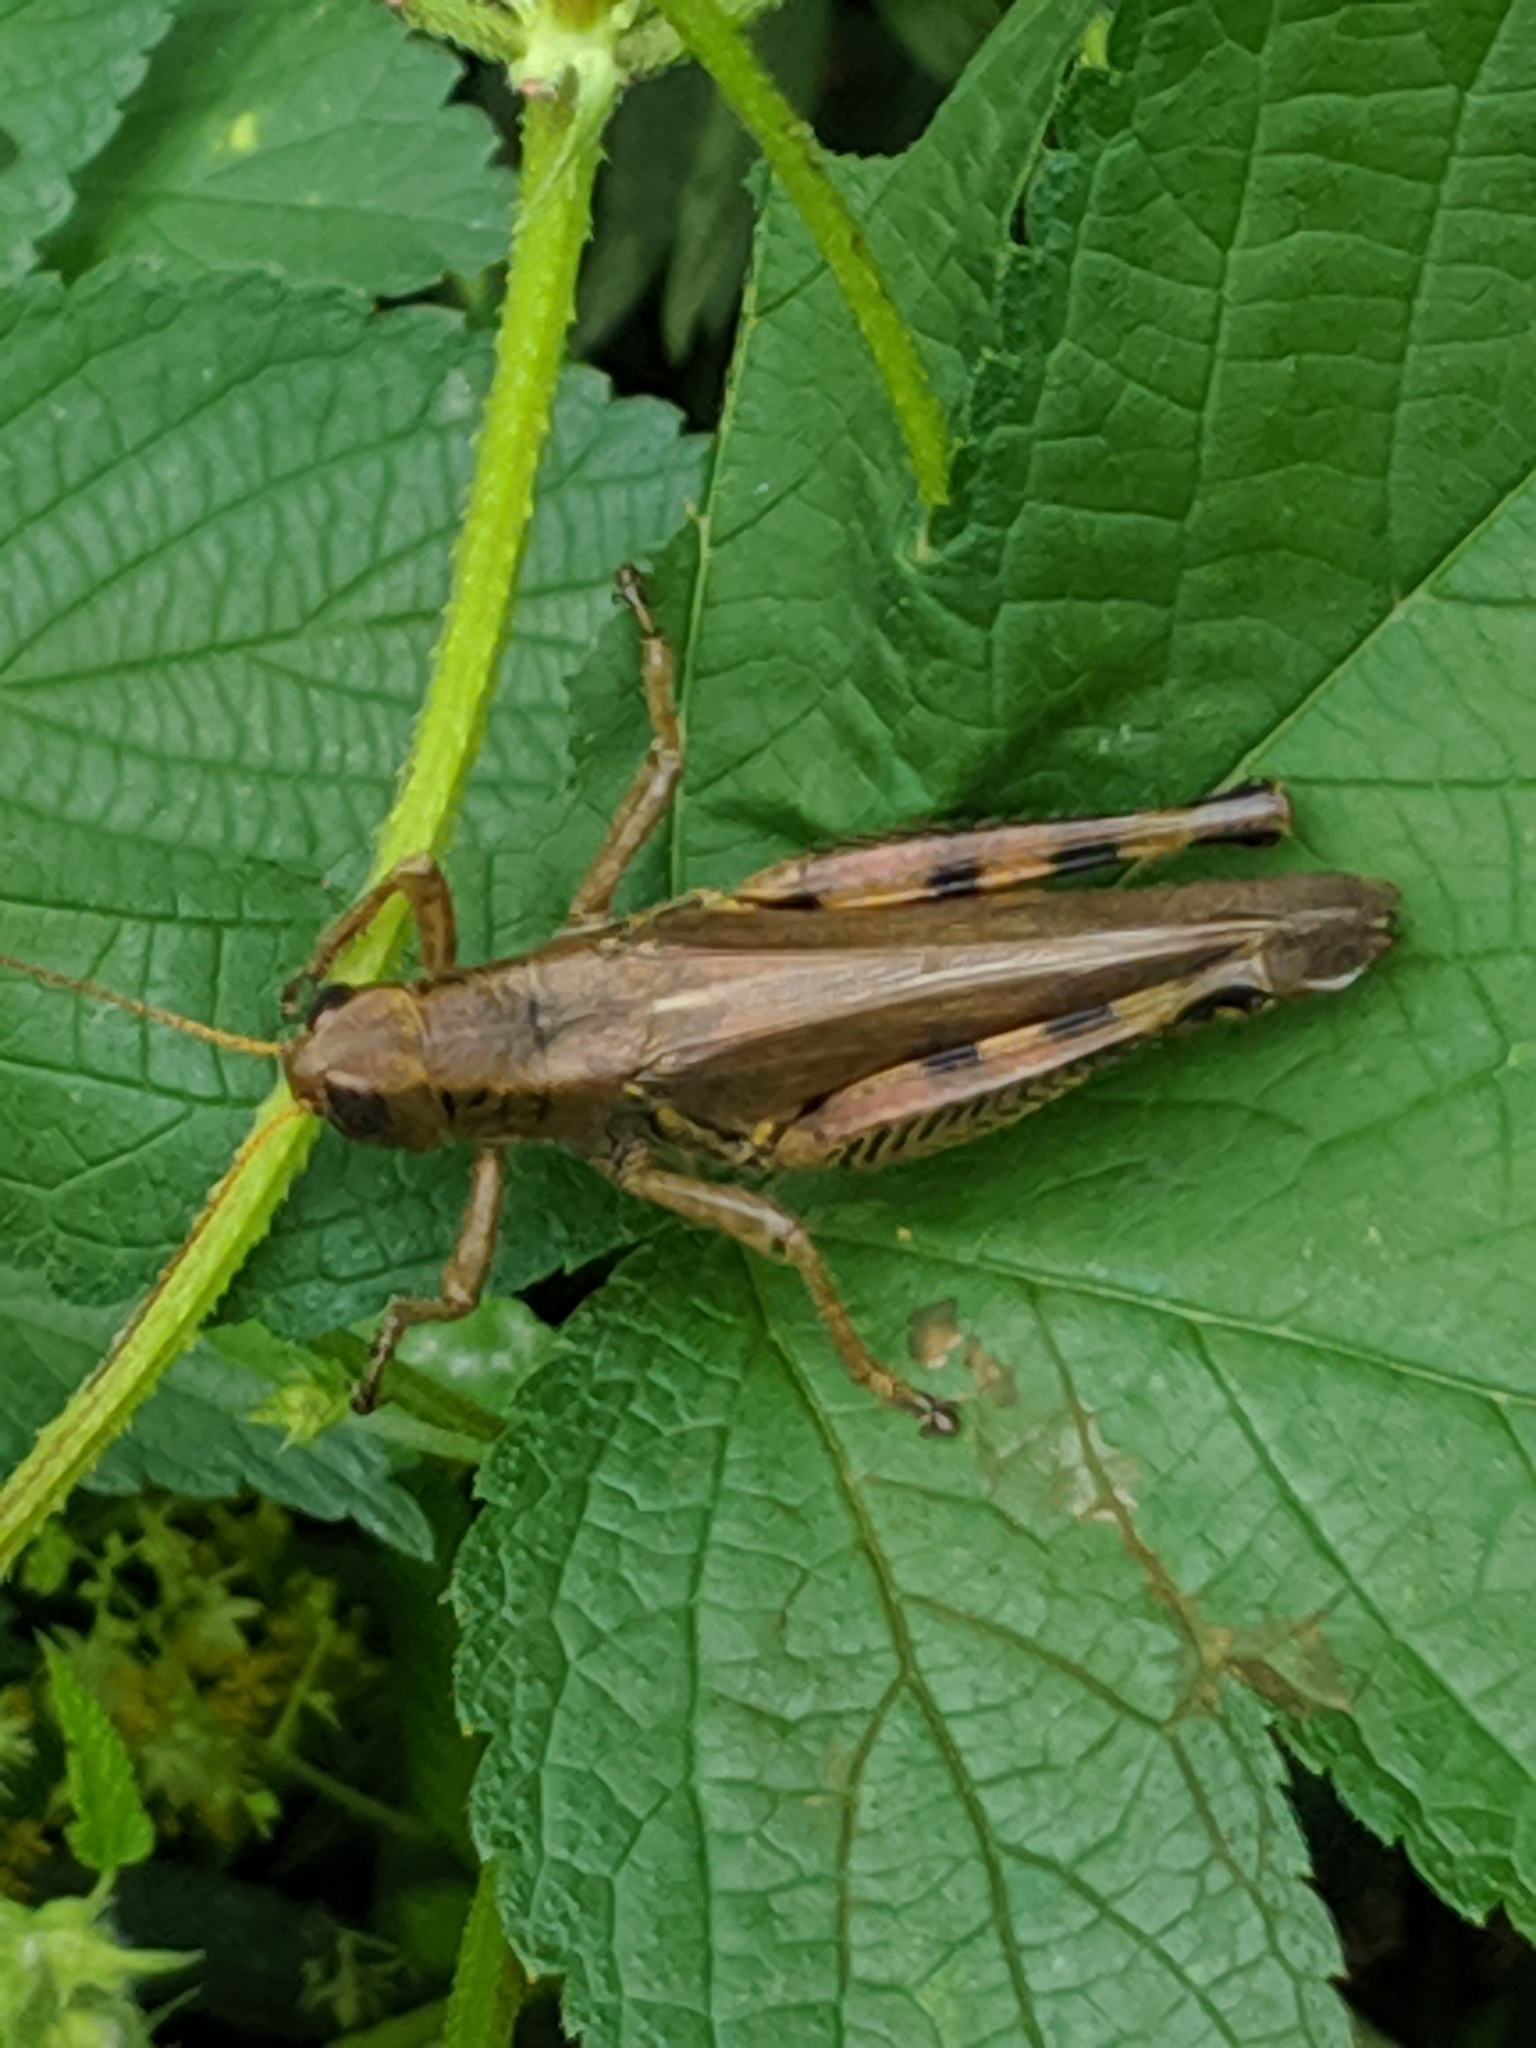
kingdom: Animalia
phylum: Arthropoda
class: Insecta
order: Orthoptera
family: Acrididae
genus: Melanoplus
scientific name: Melanoplus differentialis
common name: Differential grasshopper
